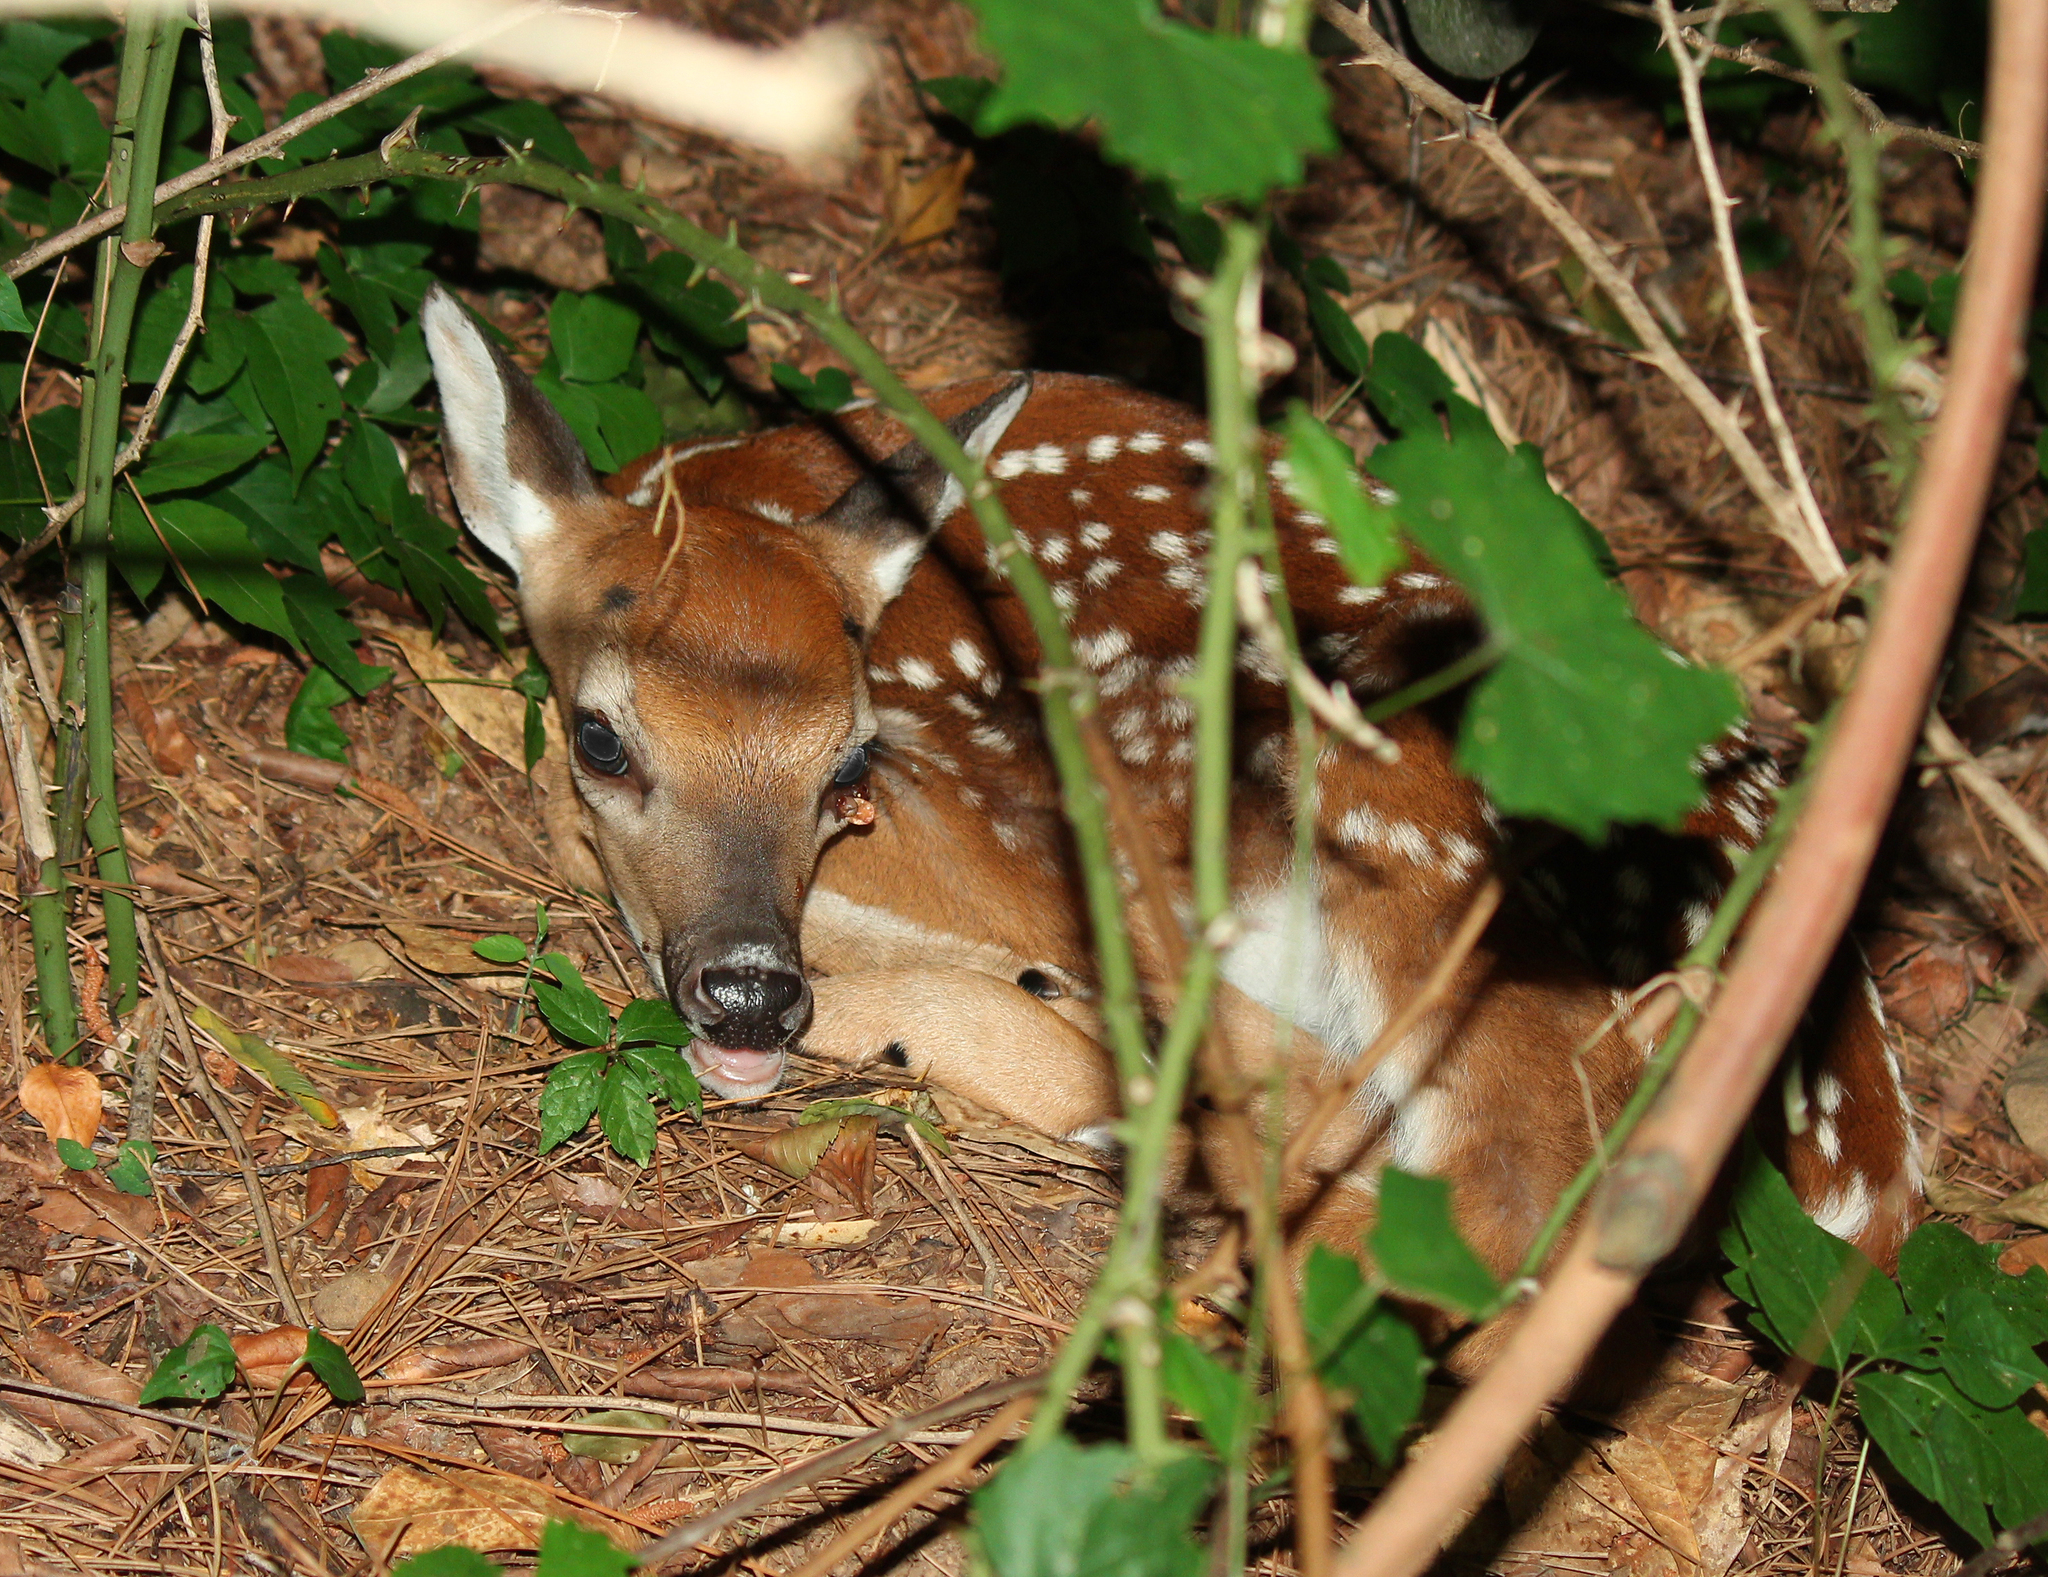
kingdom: Animalia
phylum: Chordata
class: Mammalia
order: Artiodactyla
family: Cervidae
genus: Odocoileus
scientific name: Odocoileus virginianus
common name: White-tailed deer
